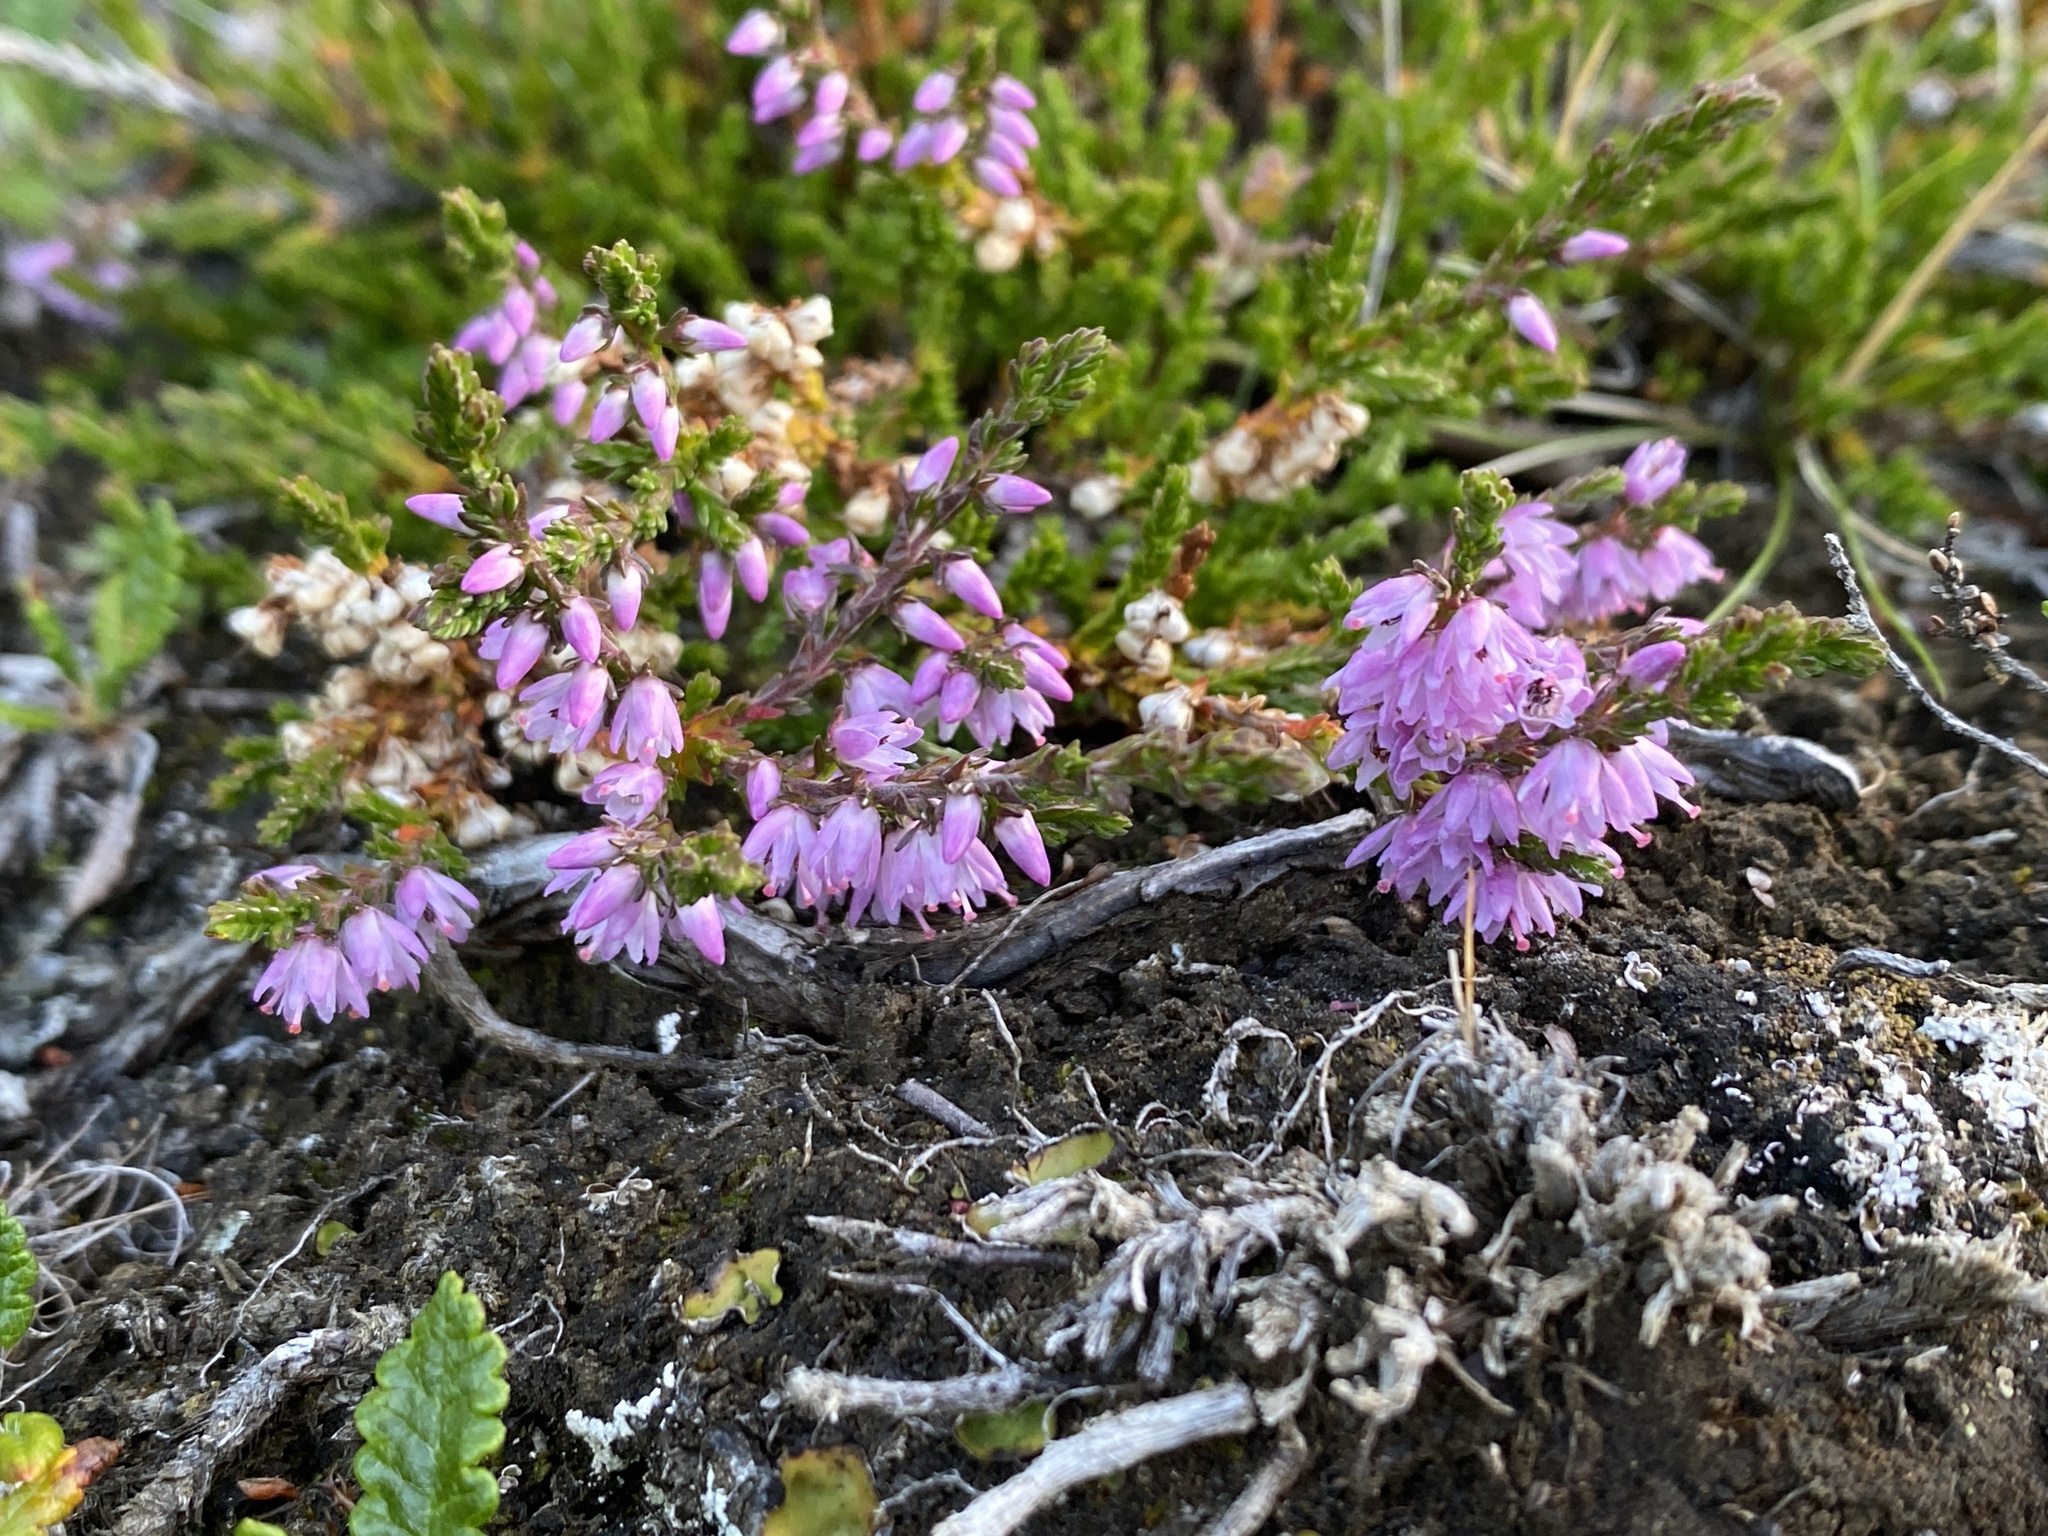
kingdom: Plantae
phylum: Tracheophyta
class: Magnoliopsida
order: Ericales
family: Ericaceae
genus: Calluna
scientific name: Calluna vulgaris
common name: Heather
